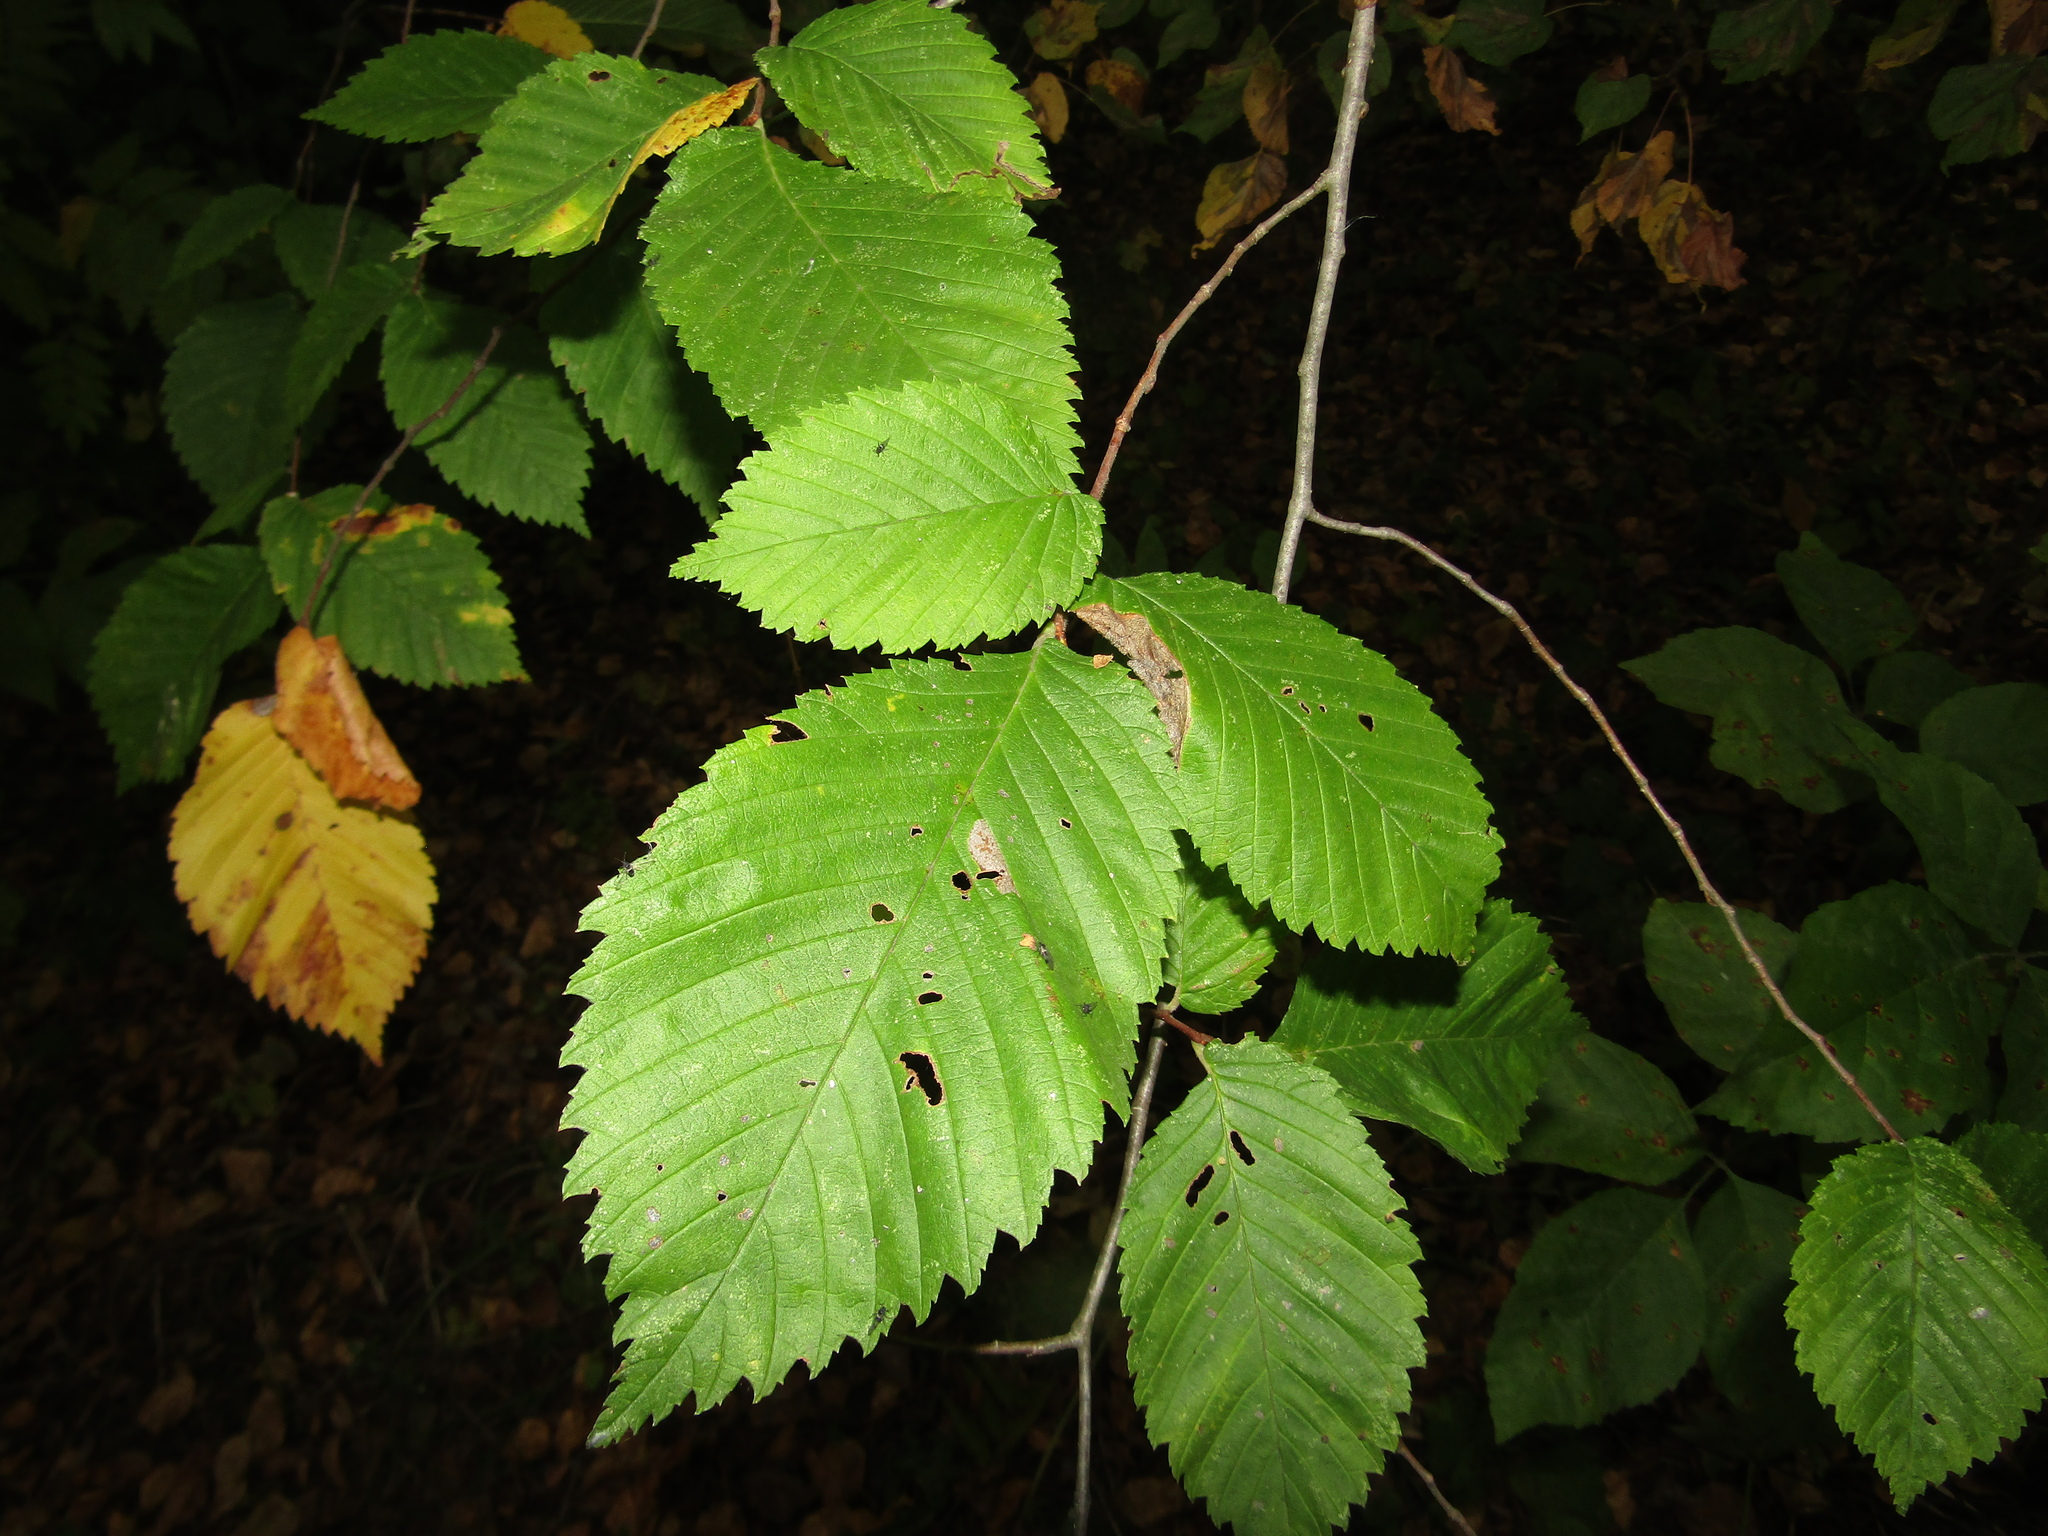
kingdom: Plantae
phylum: Tracheophyta
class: Magnoliopsida
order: Rosales
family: Ulmaceae
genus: Ulmus
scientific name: Ulmus laevis
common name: European white-elm
